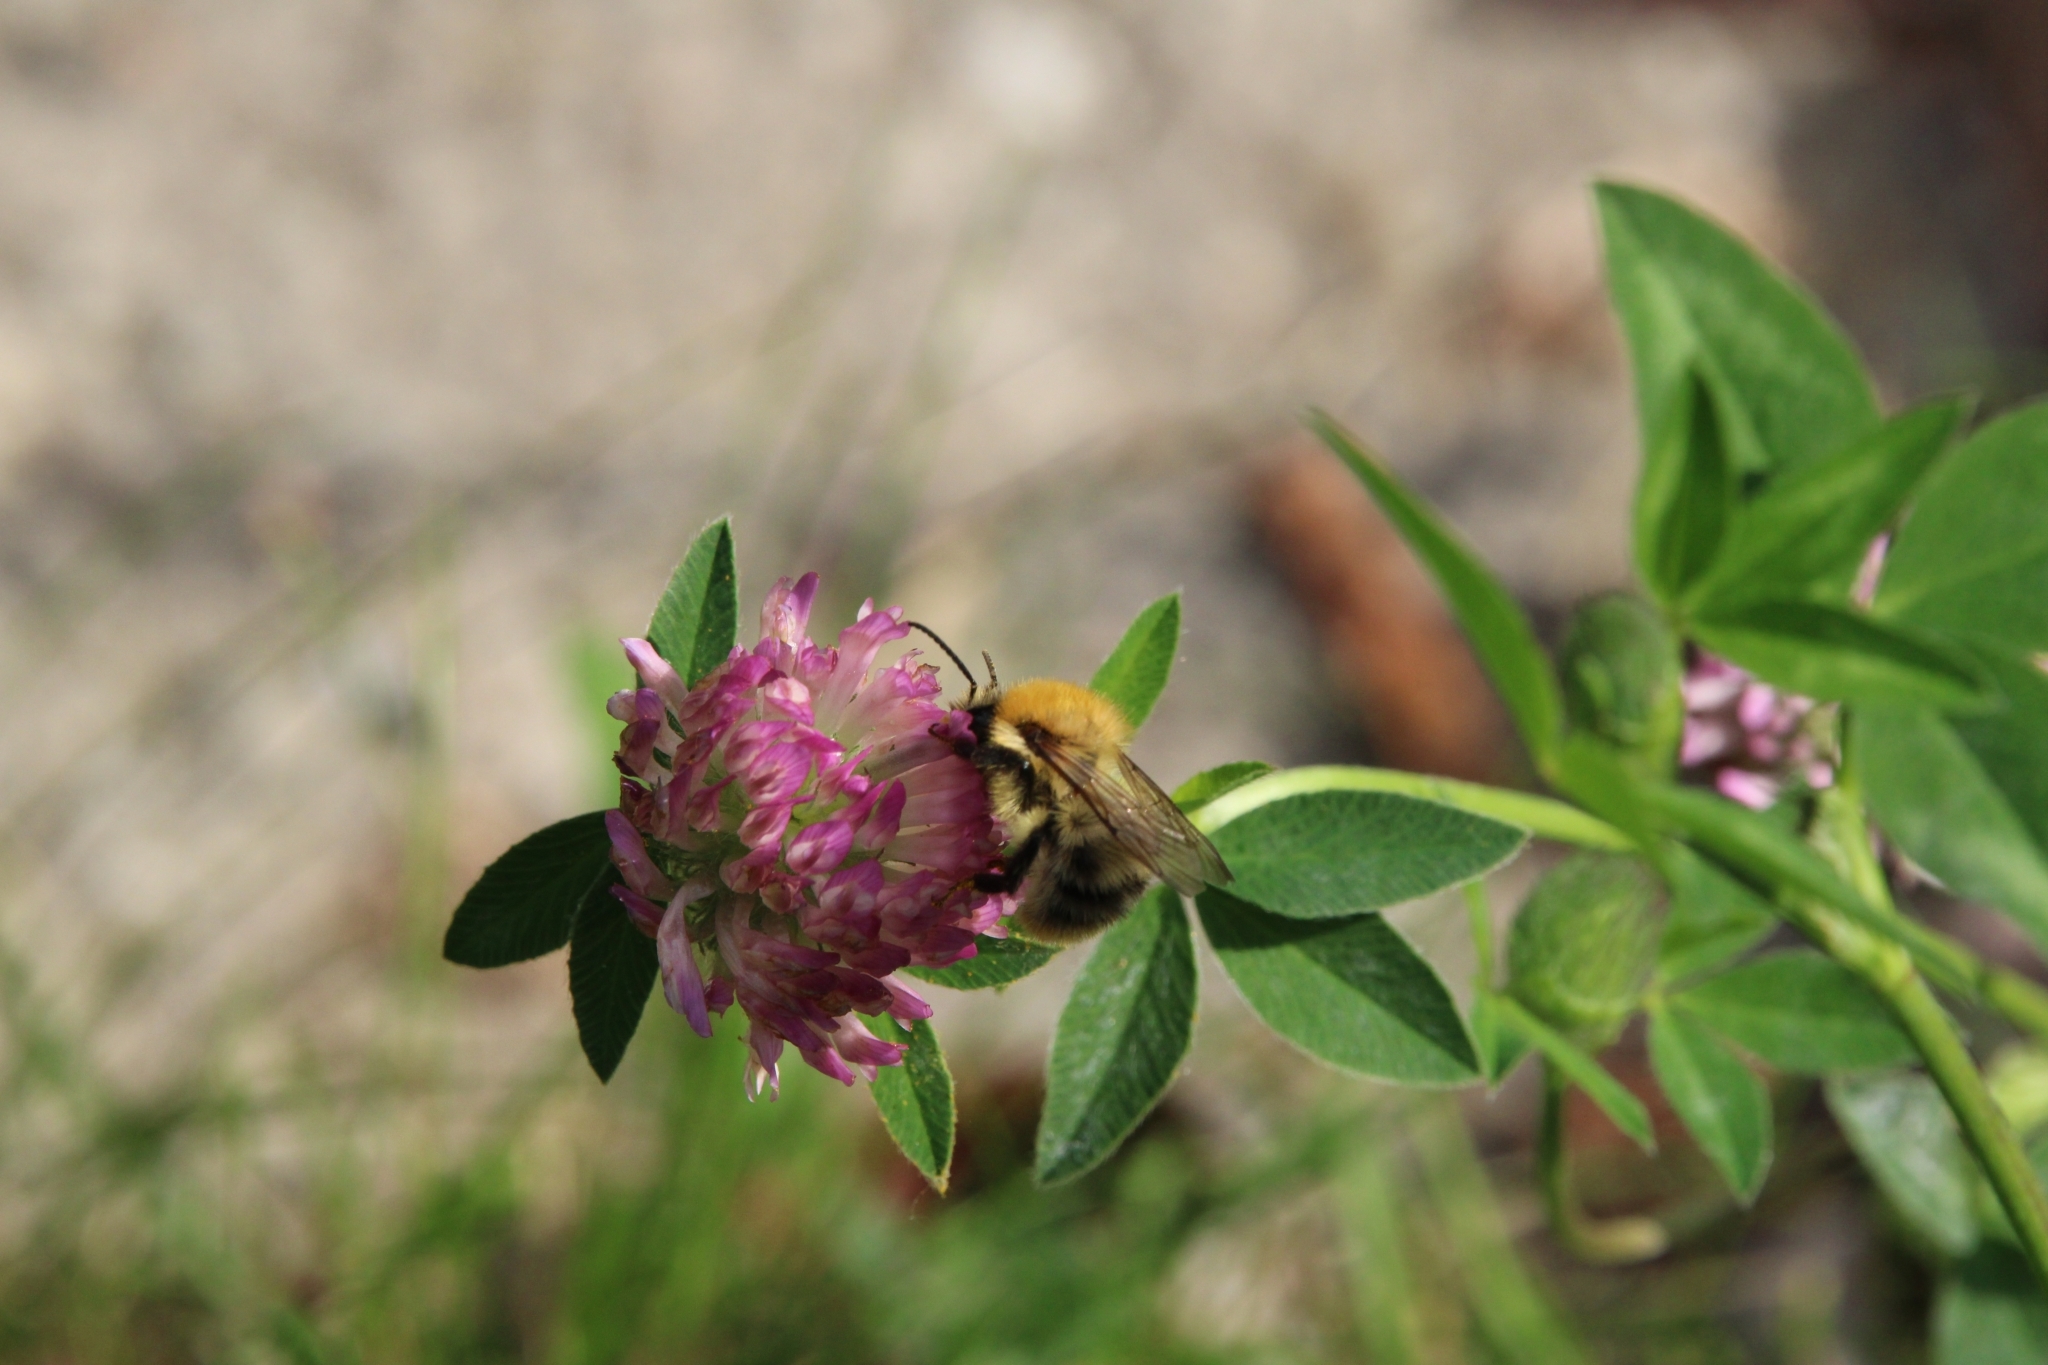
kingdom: Animalia
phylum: Arthropoda
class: Insecta
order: Hymenoptera
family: Apidae
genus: Bombus
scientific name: Bombus pascuorum
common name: Common carder bee
